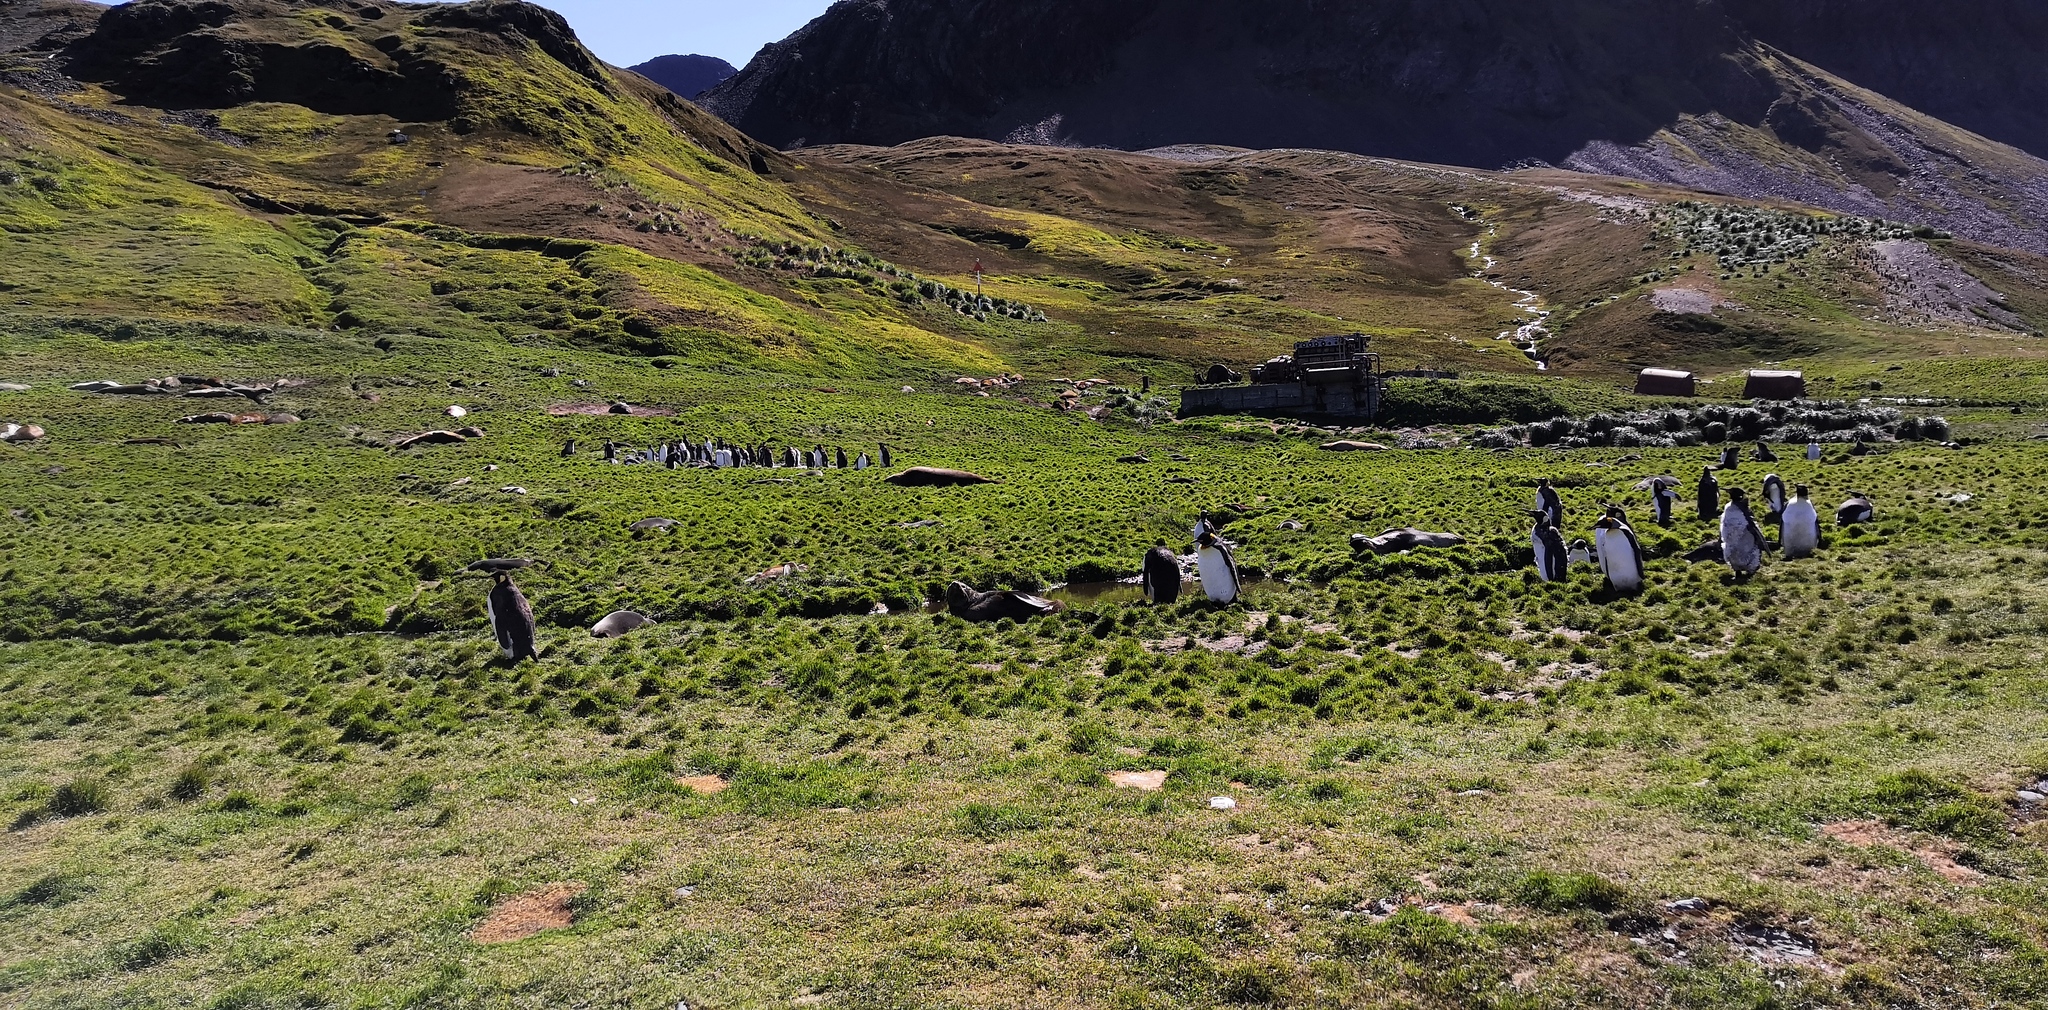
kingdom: Animalia
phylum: Chordata
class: Aves
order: Sphenisciformes
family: Spheniscidae
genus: Aptenodytes
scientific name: Aptenodytes patagonicus
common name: King penguin
